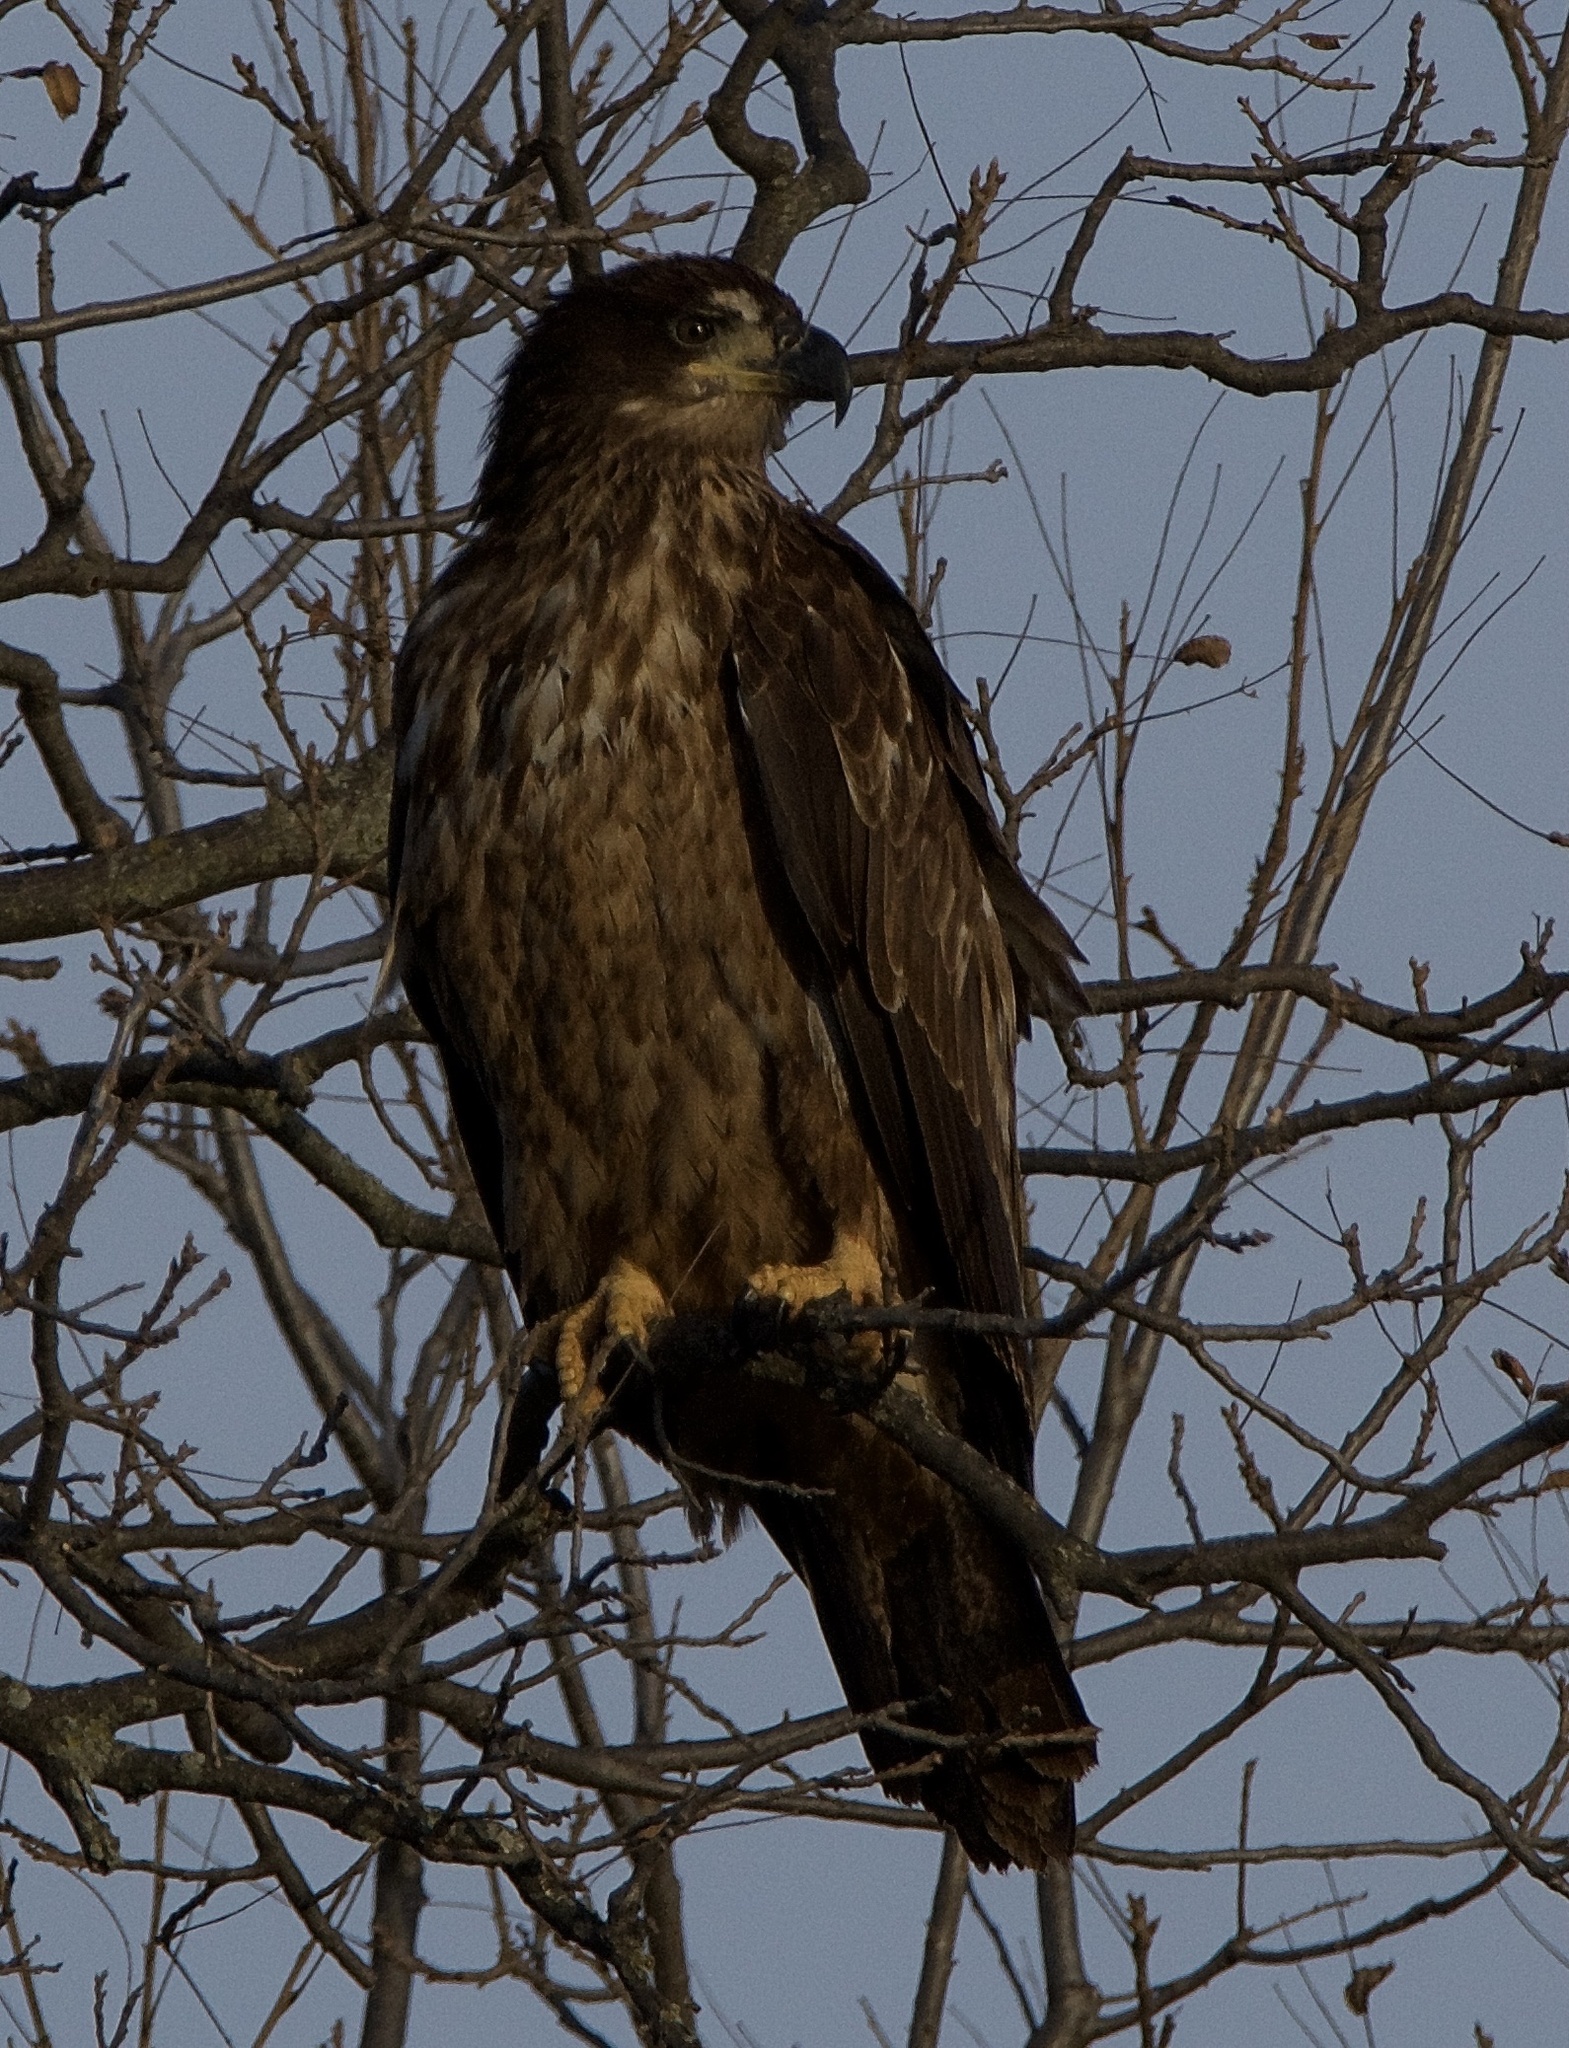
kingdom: Animalia
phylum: Chordata
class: Aves
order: Accipitriformes
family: Accipitridae
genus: Haliaeetus
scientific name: Haliaeetus leucocephalus
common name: Bald eagle
